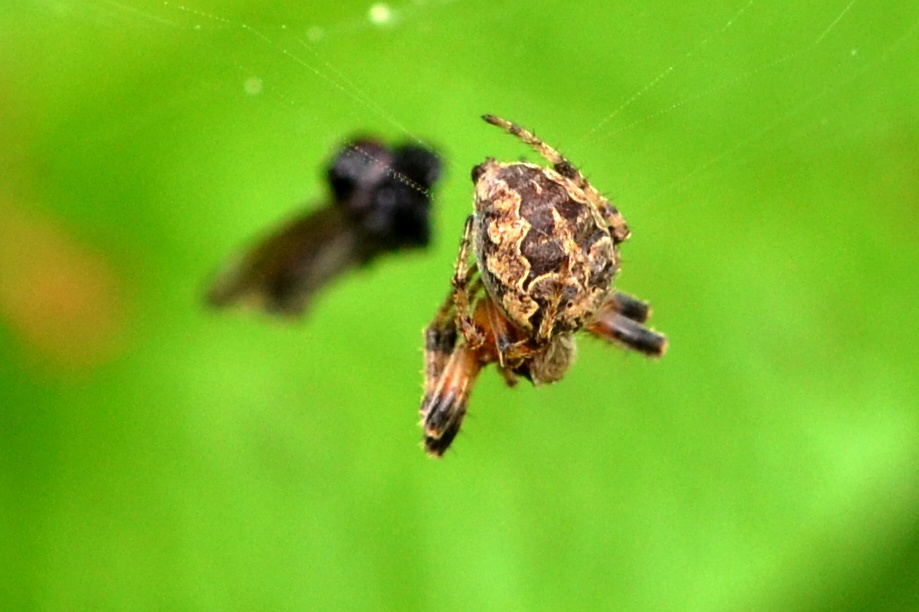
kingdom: Animalia
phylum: Arthropoda
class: Arachnida
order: Araneae
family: Araneidae
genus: Larinioides
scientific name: Larinioides patagiatus
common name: Ornamental orbweaver
